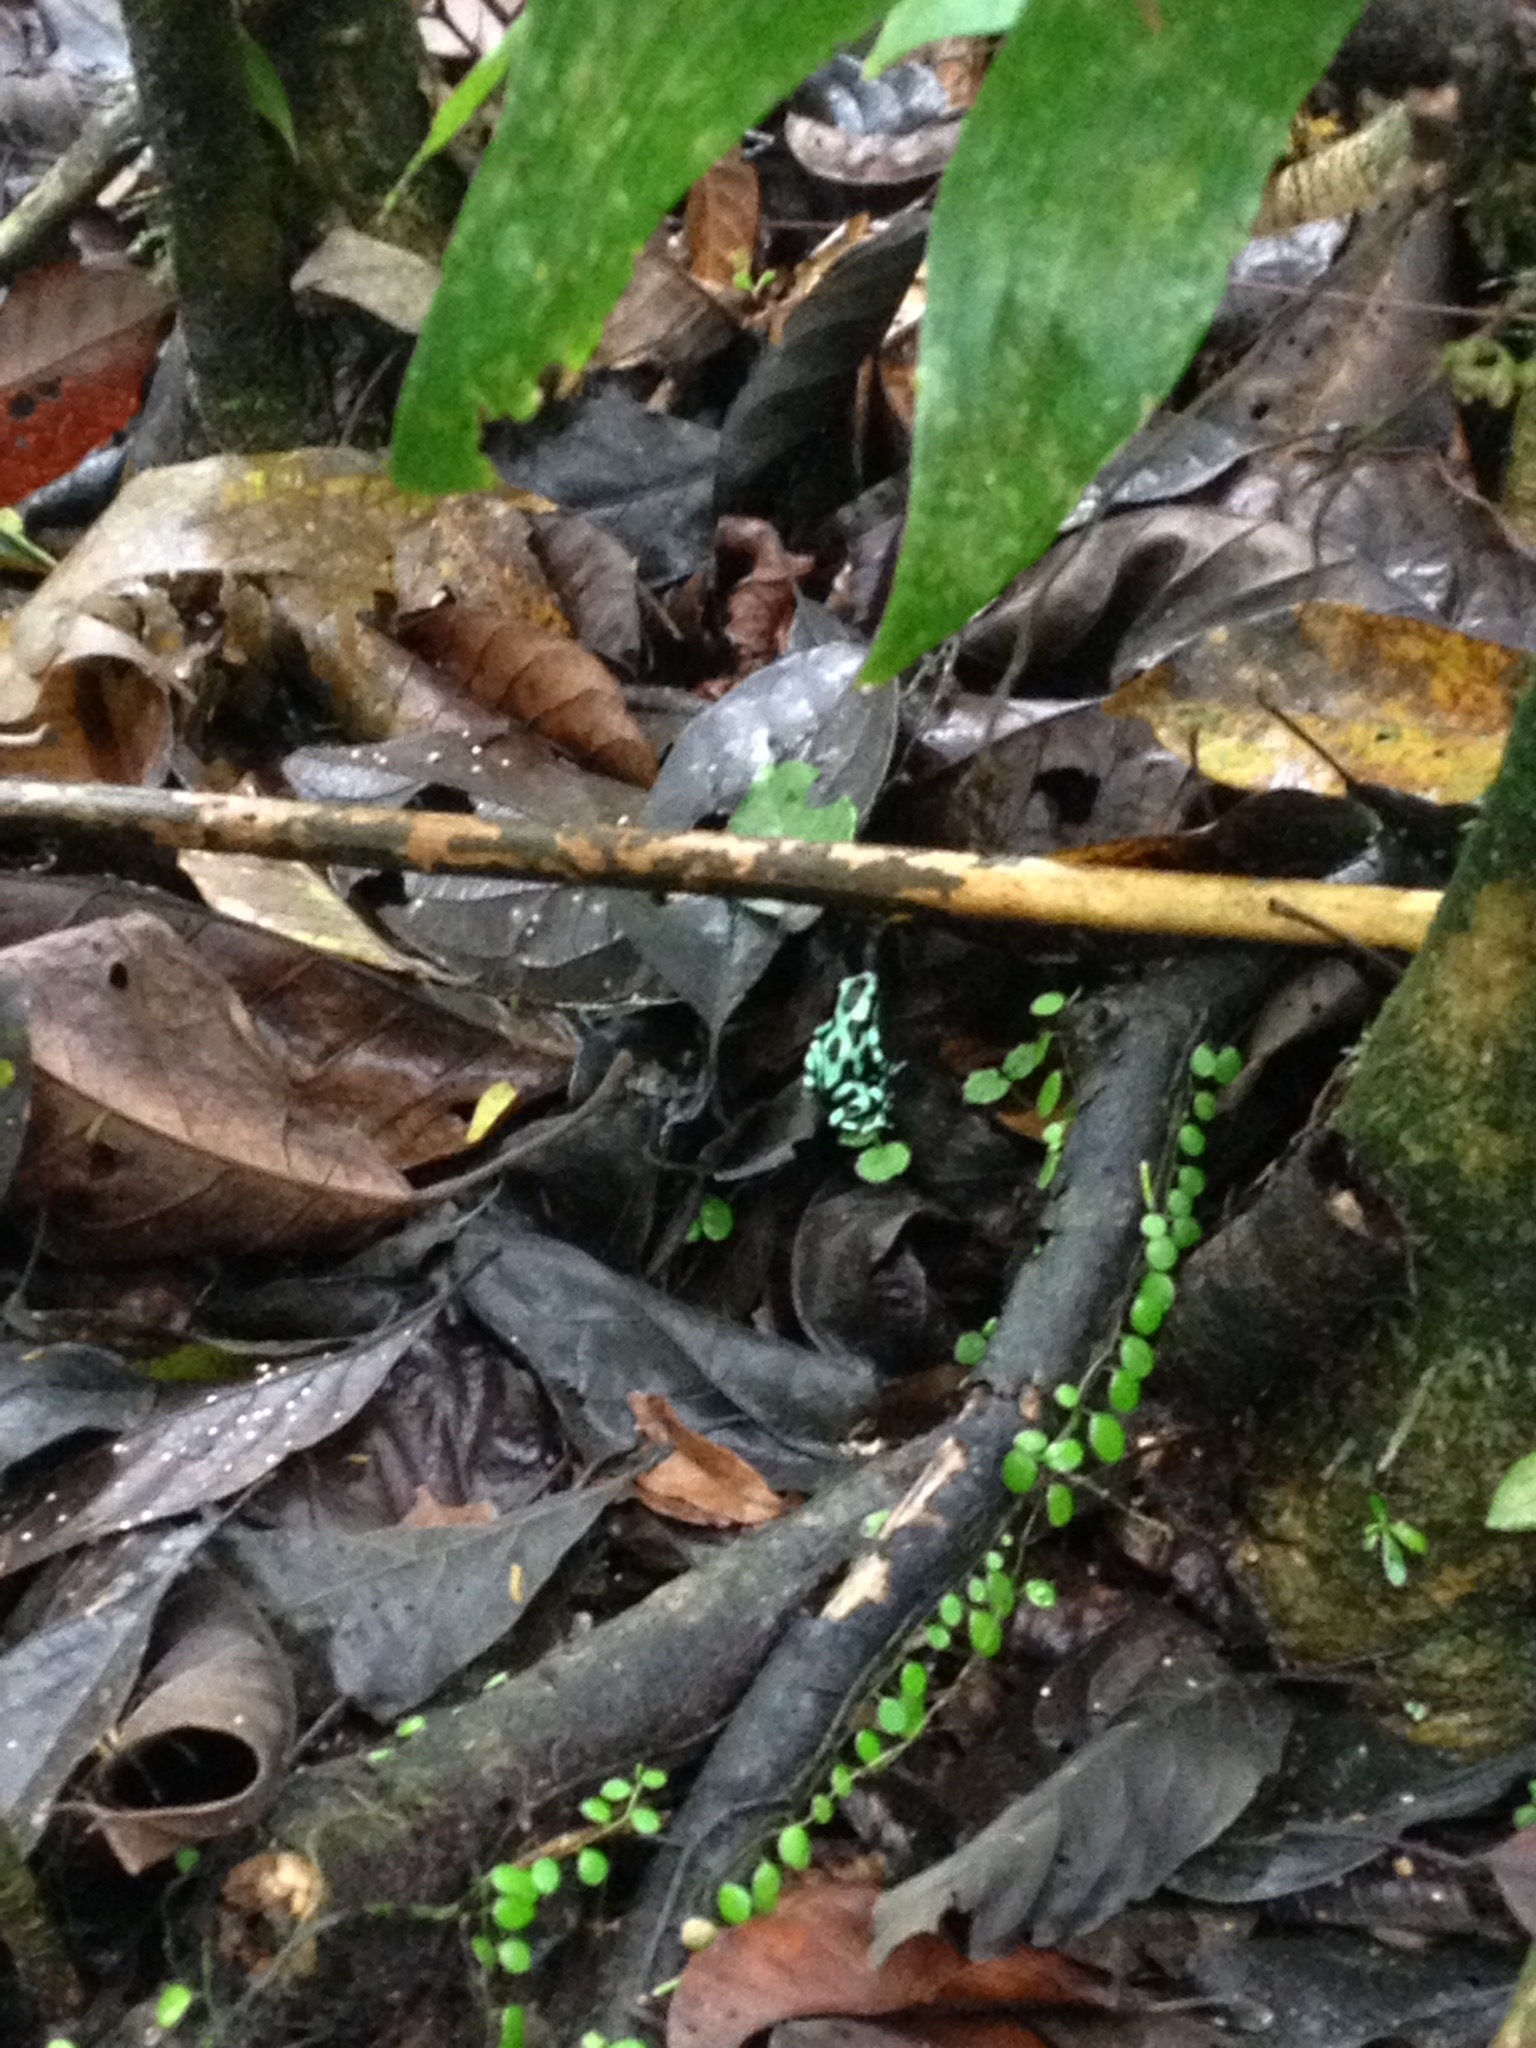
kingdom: Animalia
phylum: Chordata
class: Amphibia
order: Anura
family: Dendrobatidae
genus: Dendrobates
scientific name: Dendrobates auratus
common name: Green and black poison dart frog
